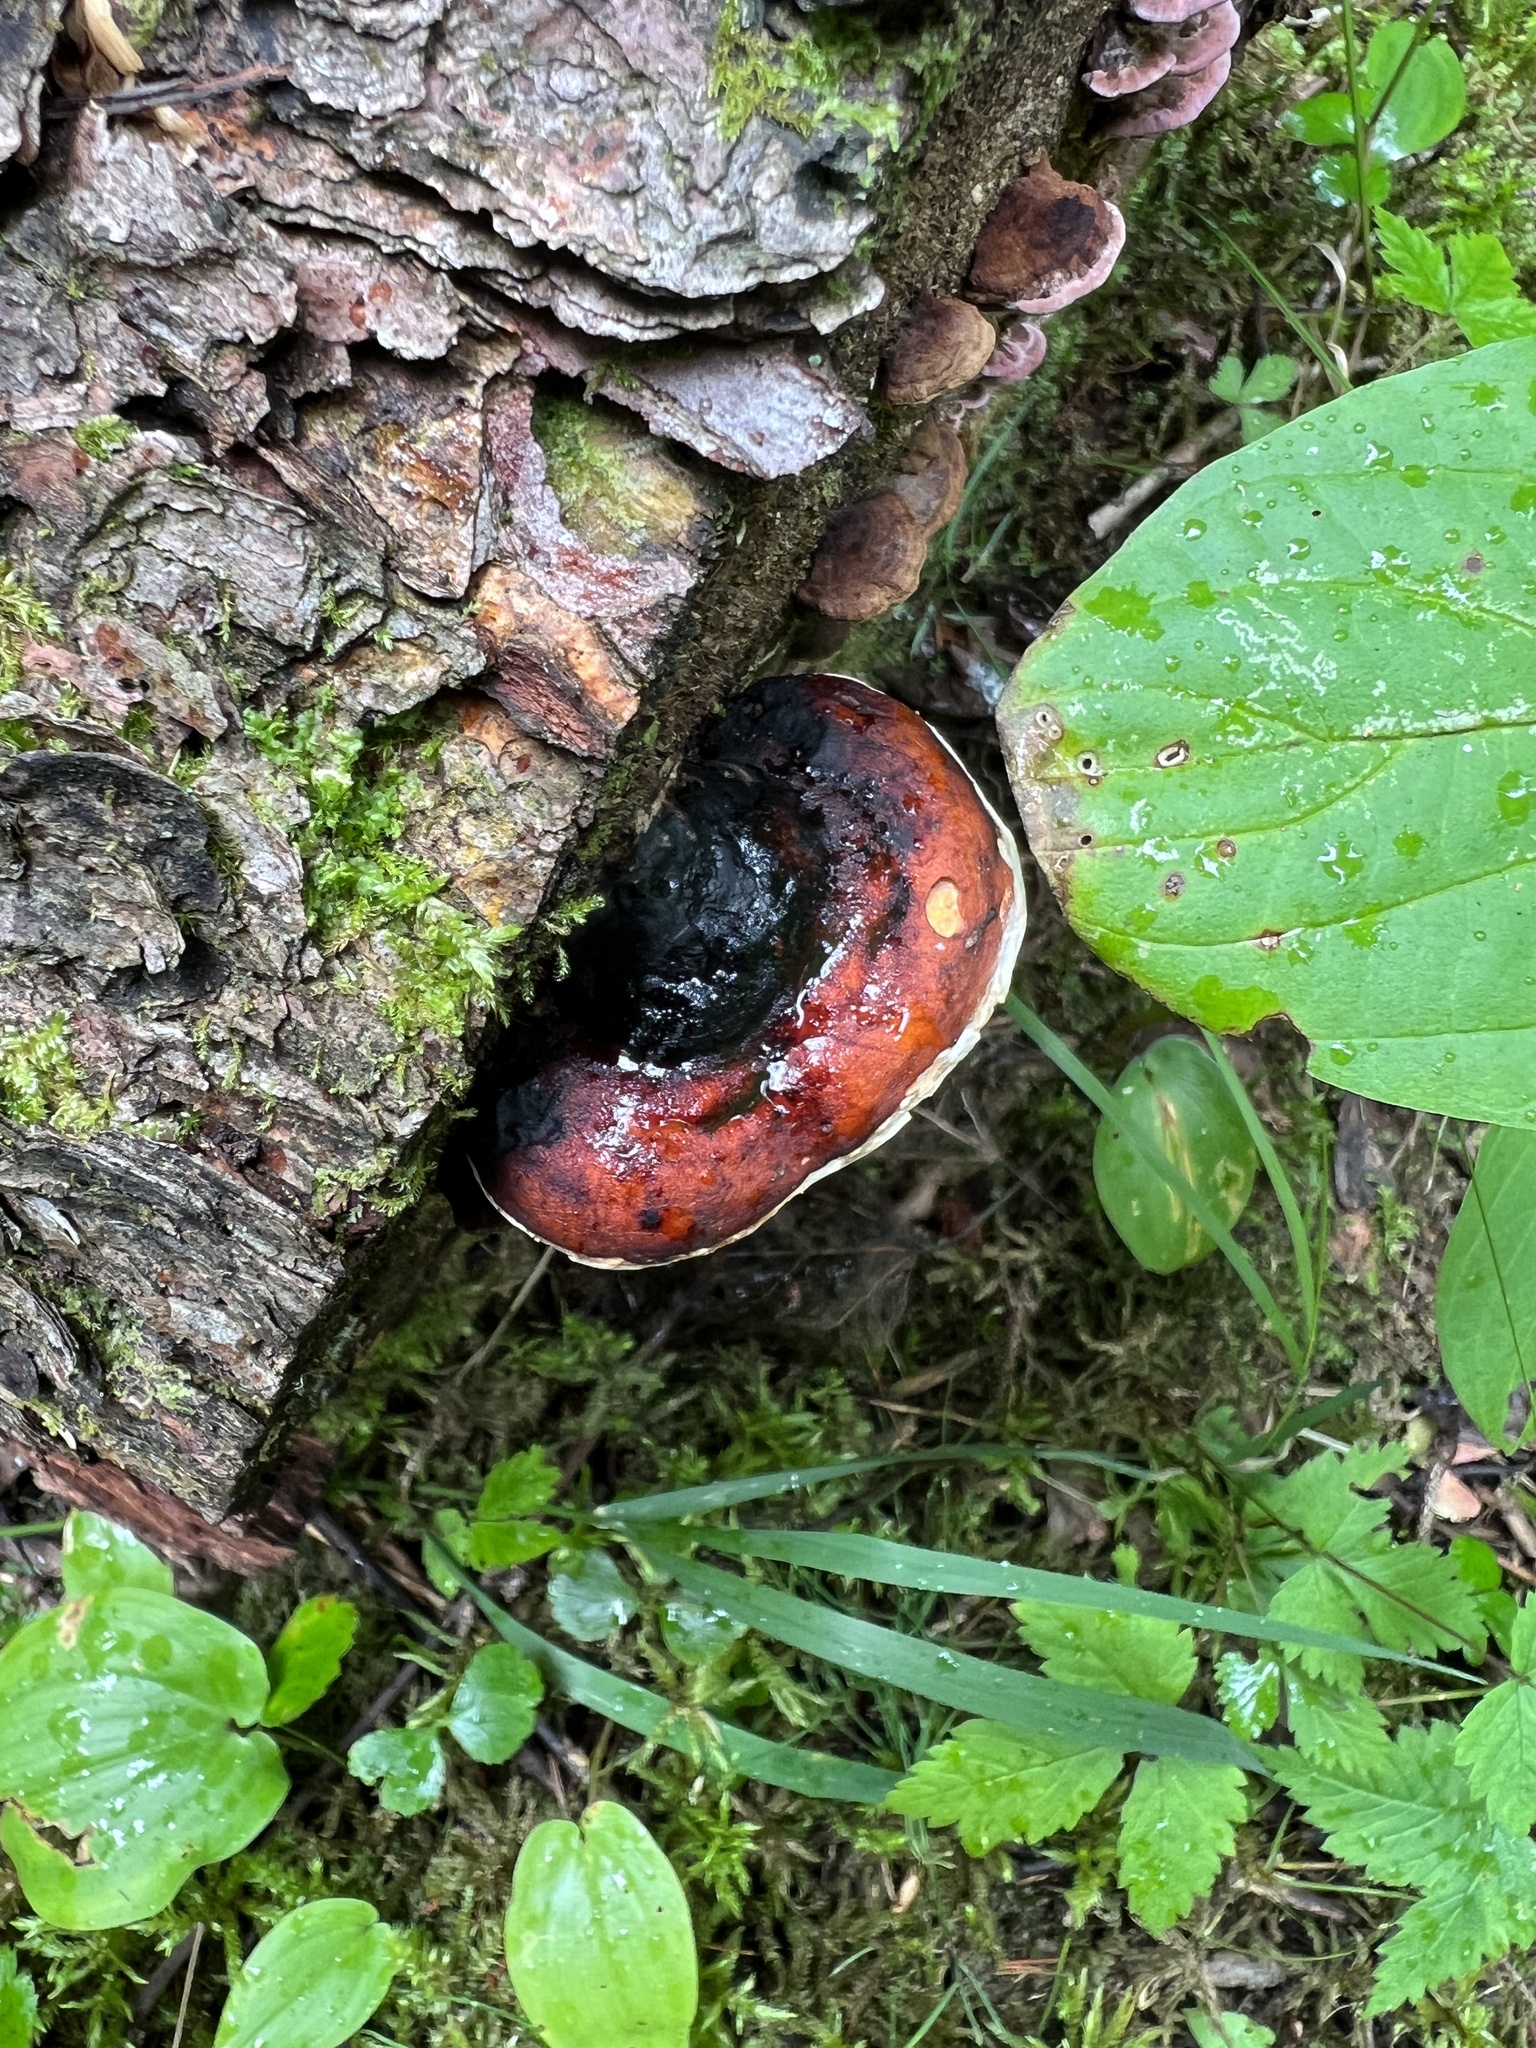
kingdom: Fungi
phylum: Basidiomycota
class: Agaricomycetes
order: Polyporales
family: Fomitopsidaceae
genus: Fomitopsis
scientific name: Fomitopsis mounceae
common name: Northern red belt
